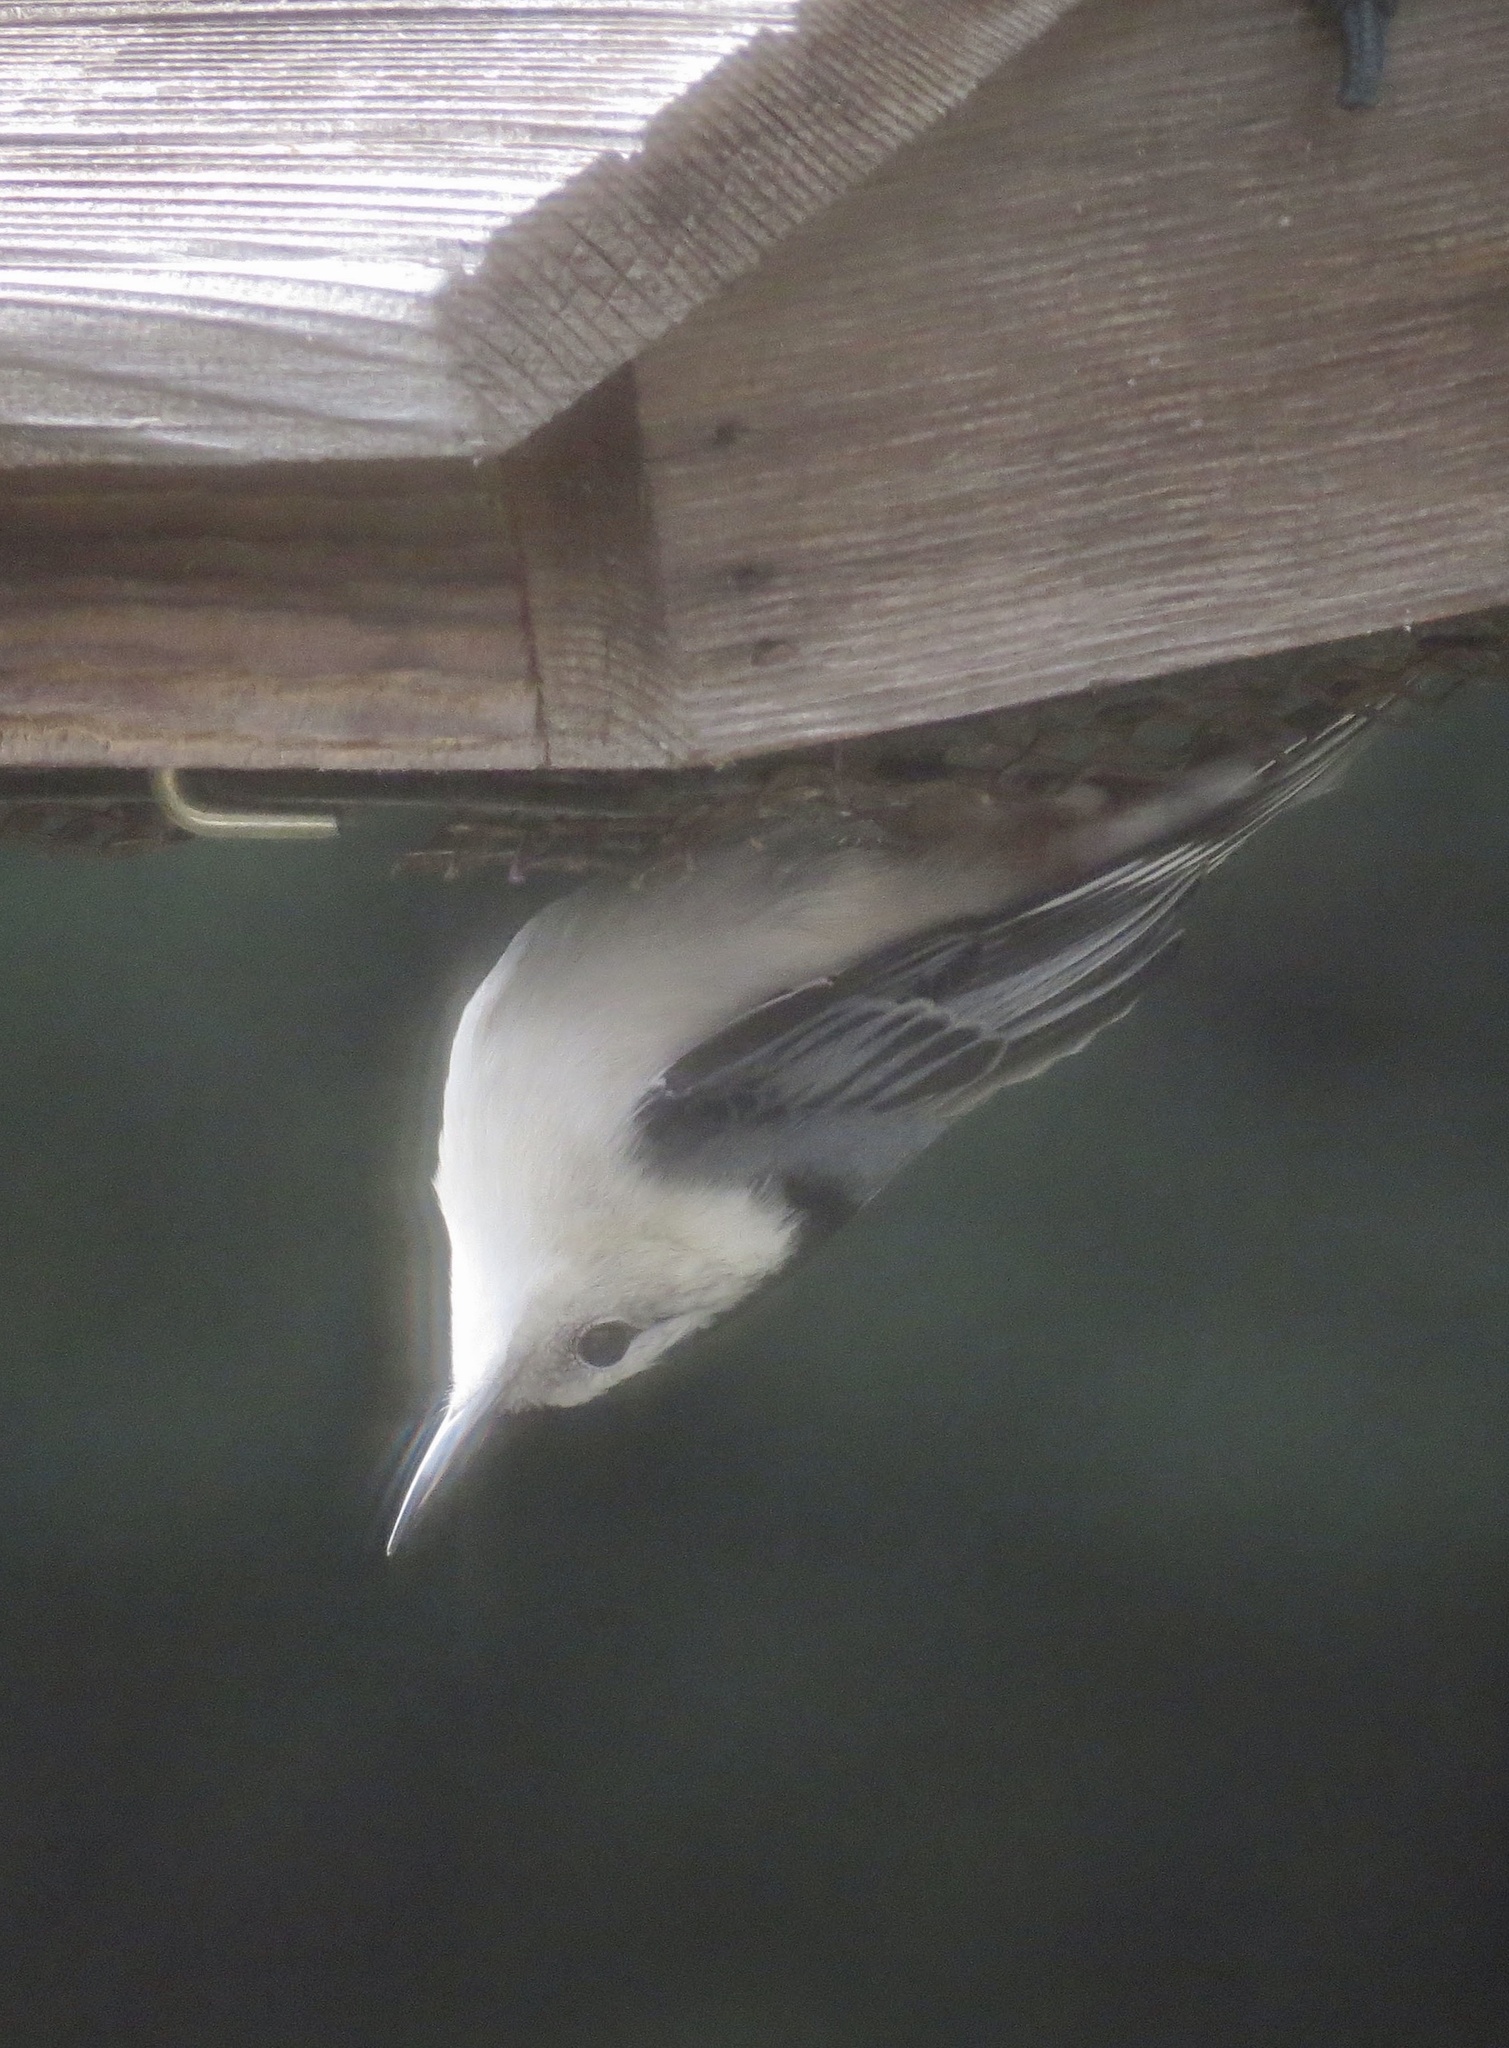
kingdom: Animalia
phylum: Chordata
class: Aves
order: Passeriformes
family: Sittidae
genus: Sitta
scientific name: Sitta carolinensis
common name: White-breasted nuthatch
